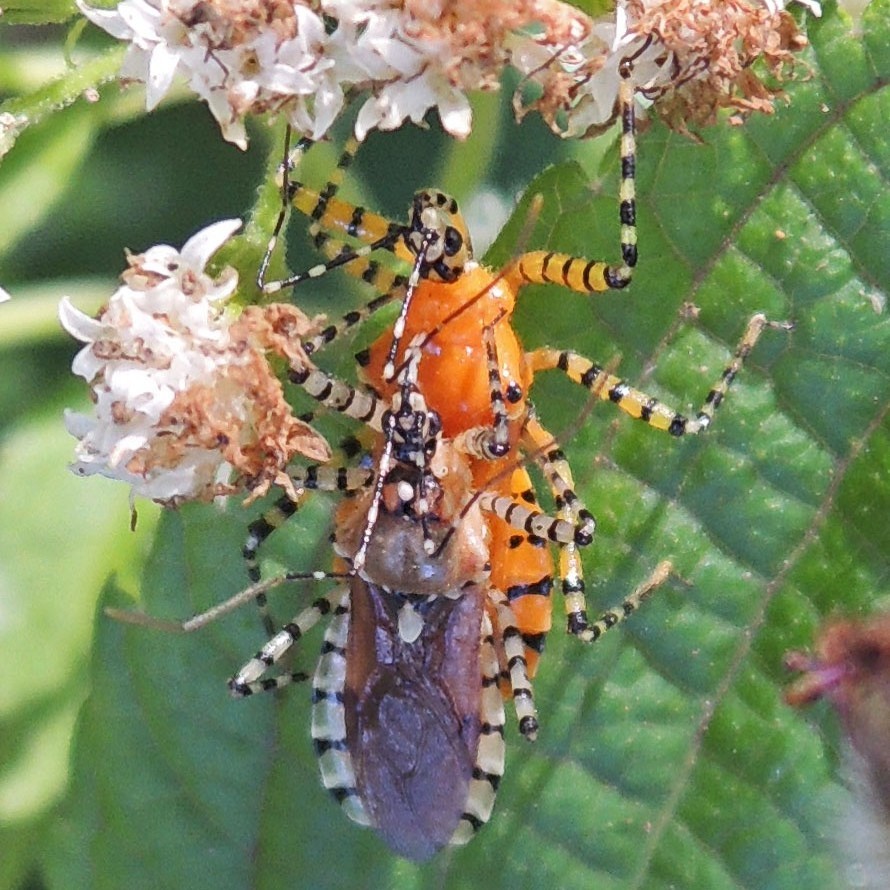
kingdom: Animalia
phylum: Arthropoda
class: Insecta
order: Hemiptera
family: Reduviidae
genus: Pselliopus
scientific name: Pselliopus cinctus
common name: Ringed assassin bug
